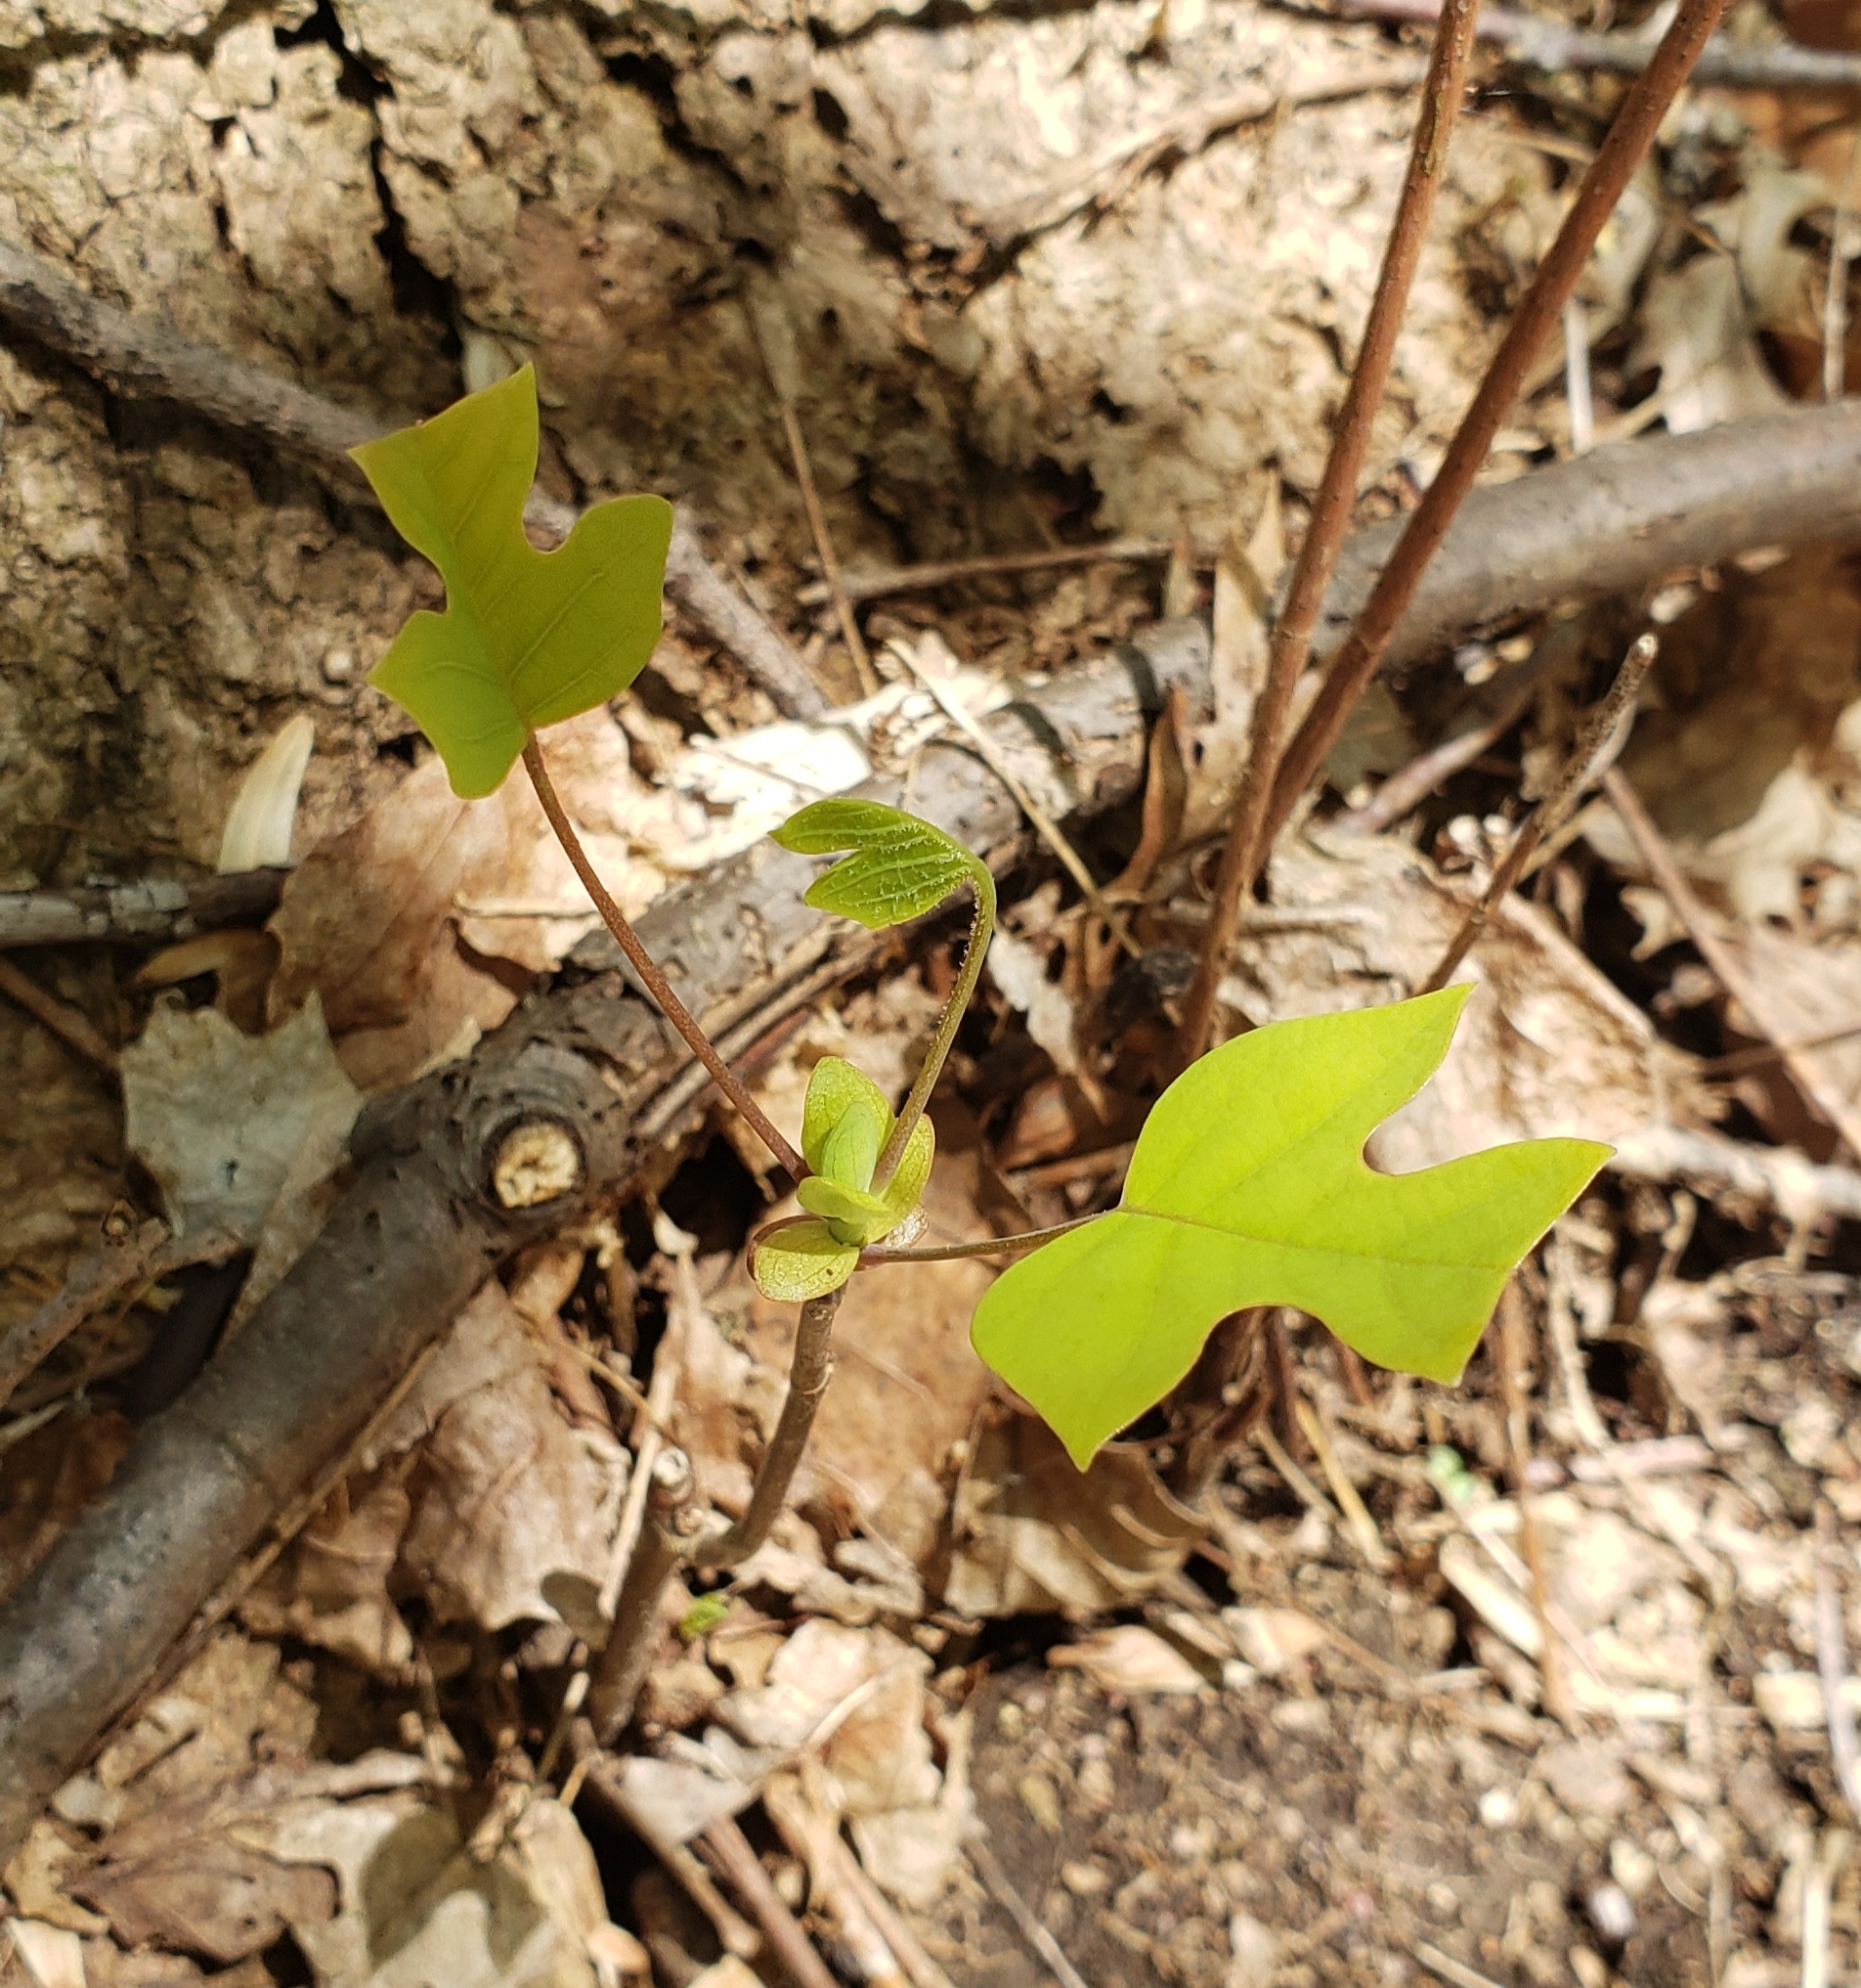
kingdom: Plantae
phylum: Tracheophyta
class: Magnoliopsida
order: Magnoliales
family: Magnoliaceae
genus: Liriodendron
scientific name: Liriodendron tulipifera
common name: Tulip tree
